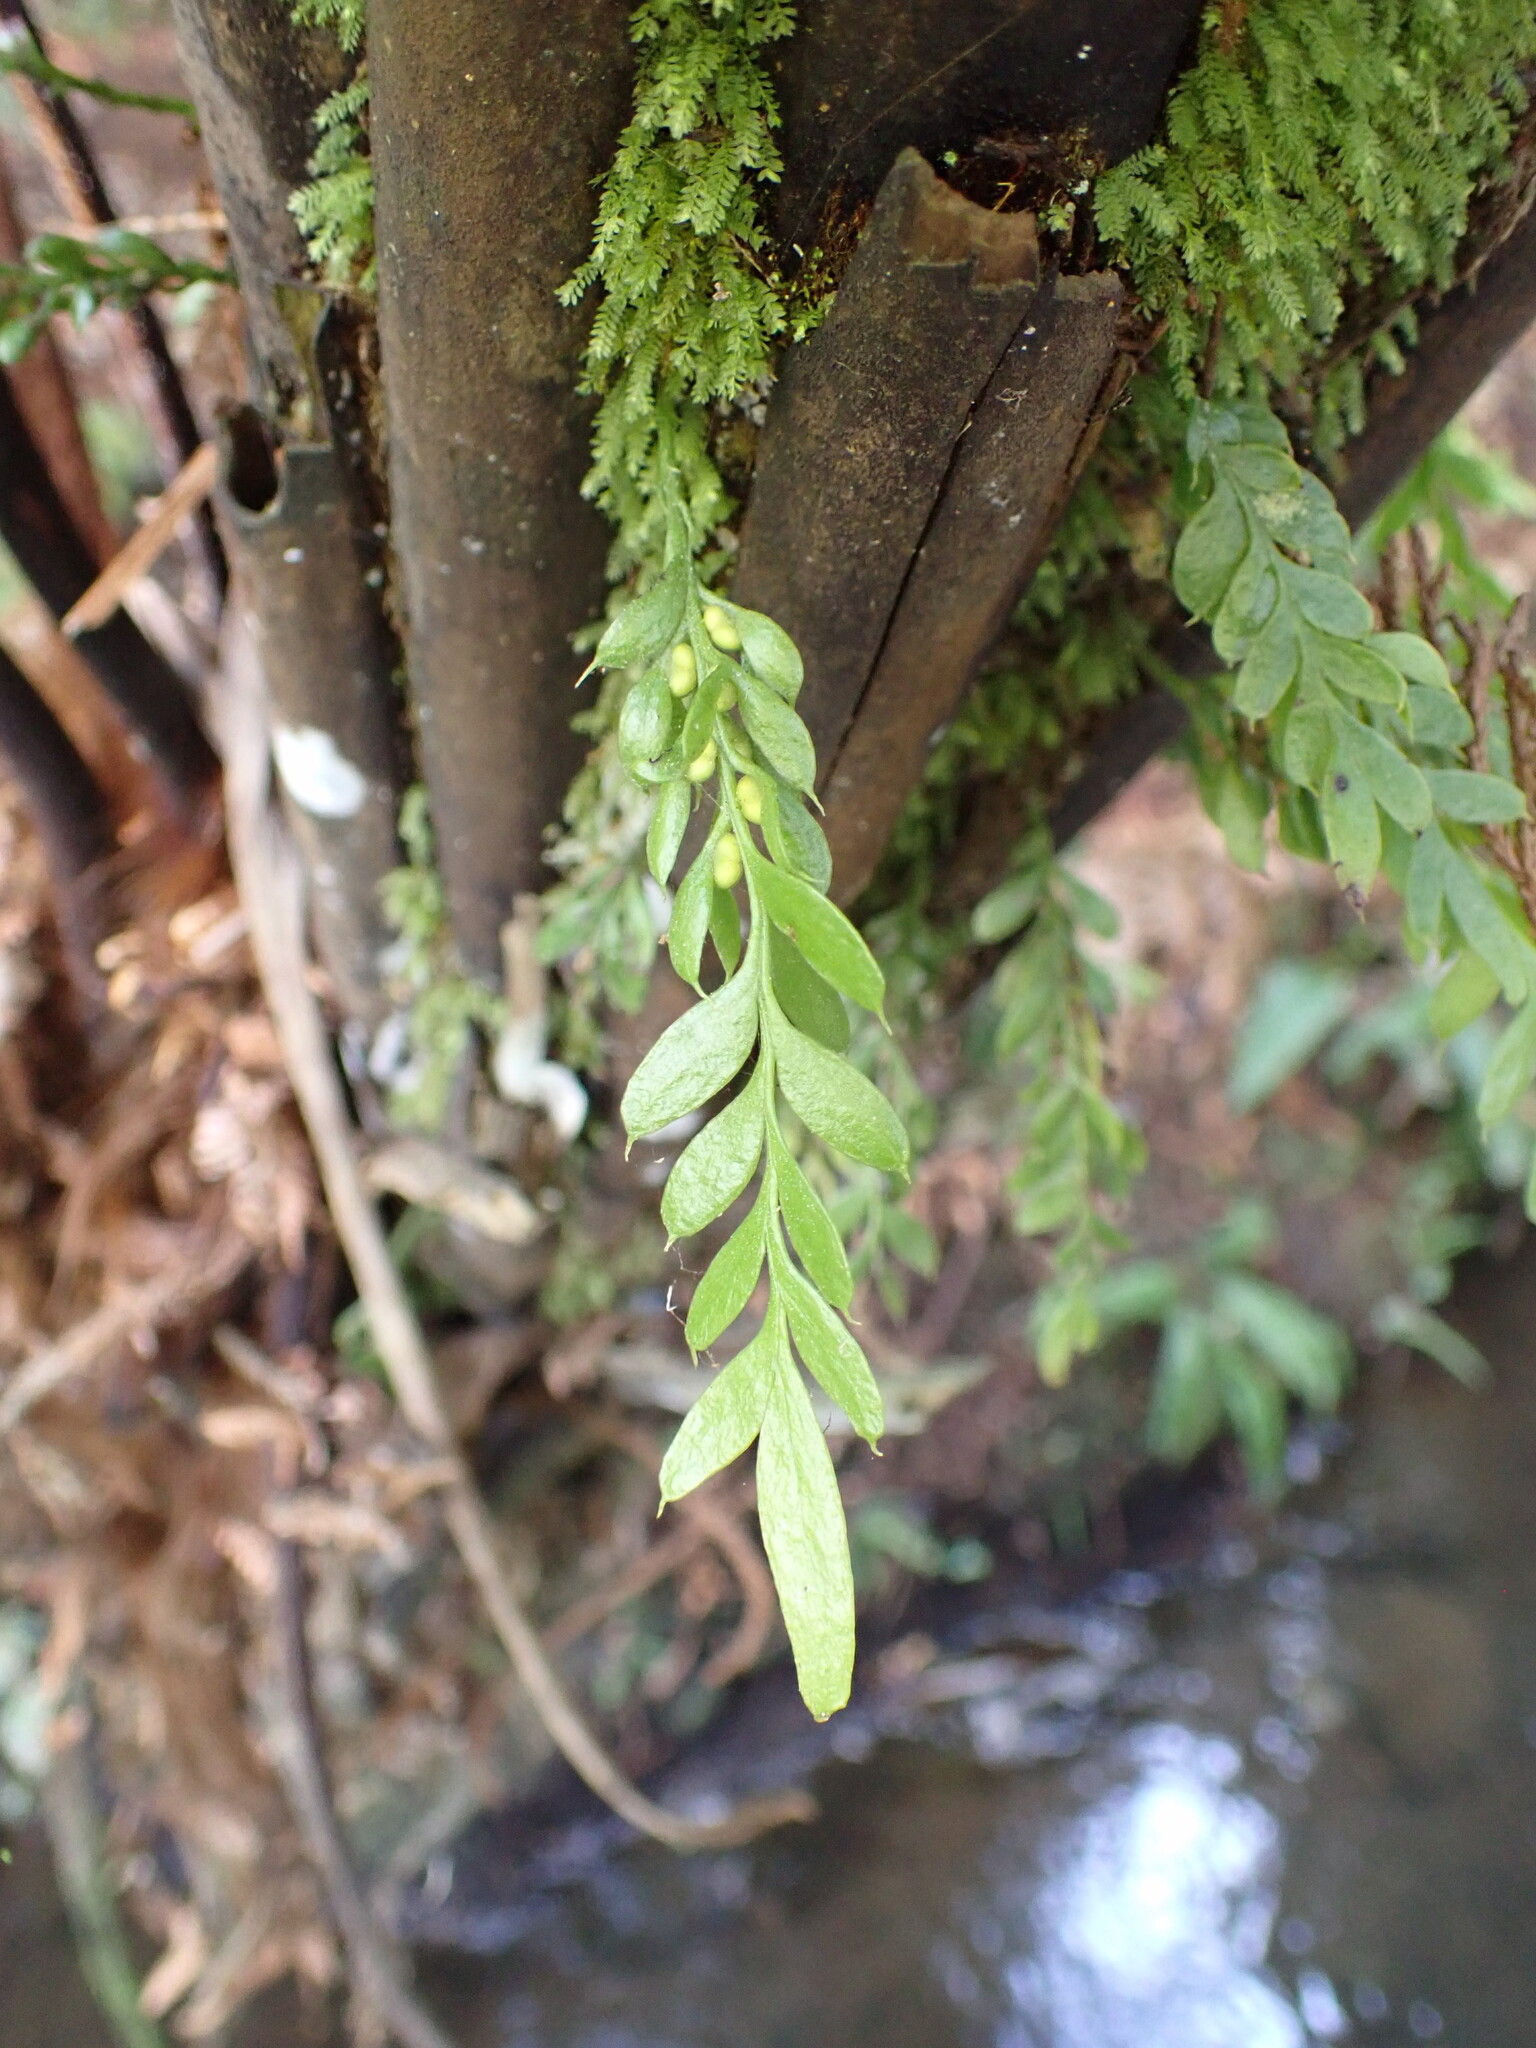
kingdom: Plantae
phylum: Tracheophyta
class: Polypodiopsida
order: Psilotales
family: Psilotaceae
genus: Tmesipteris
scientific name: Tmesipteris lanceolata
